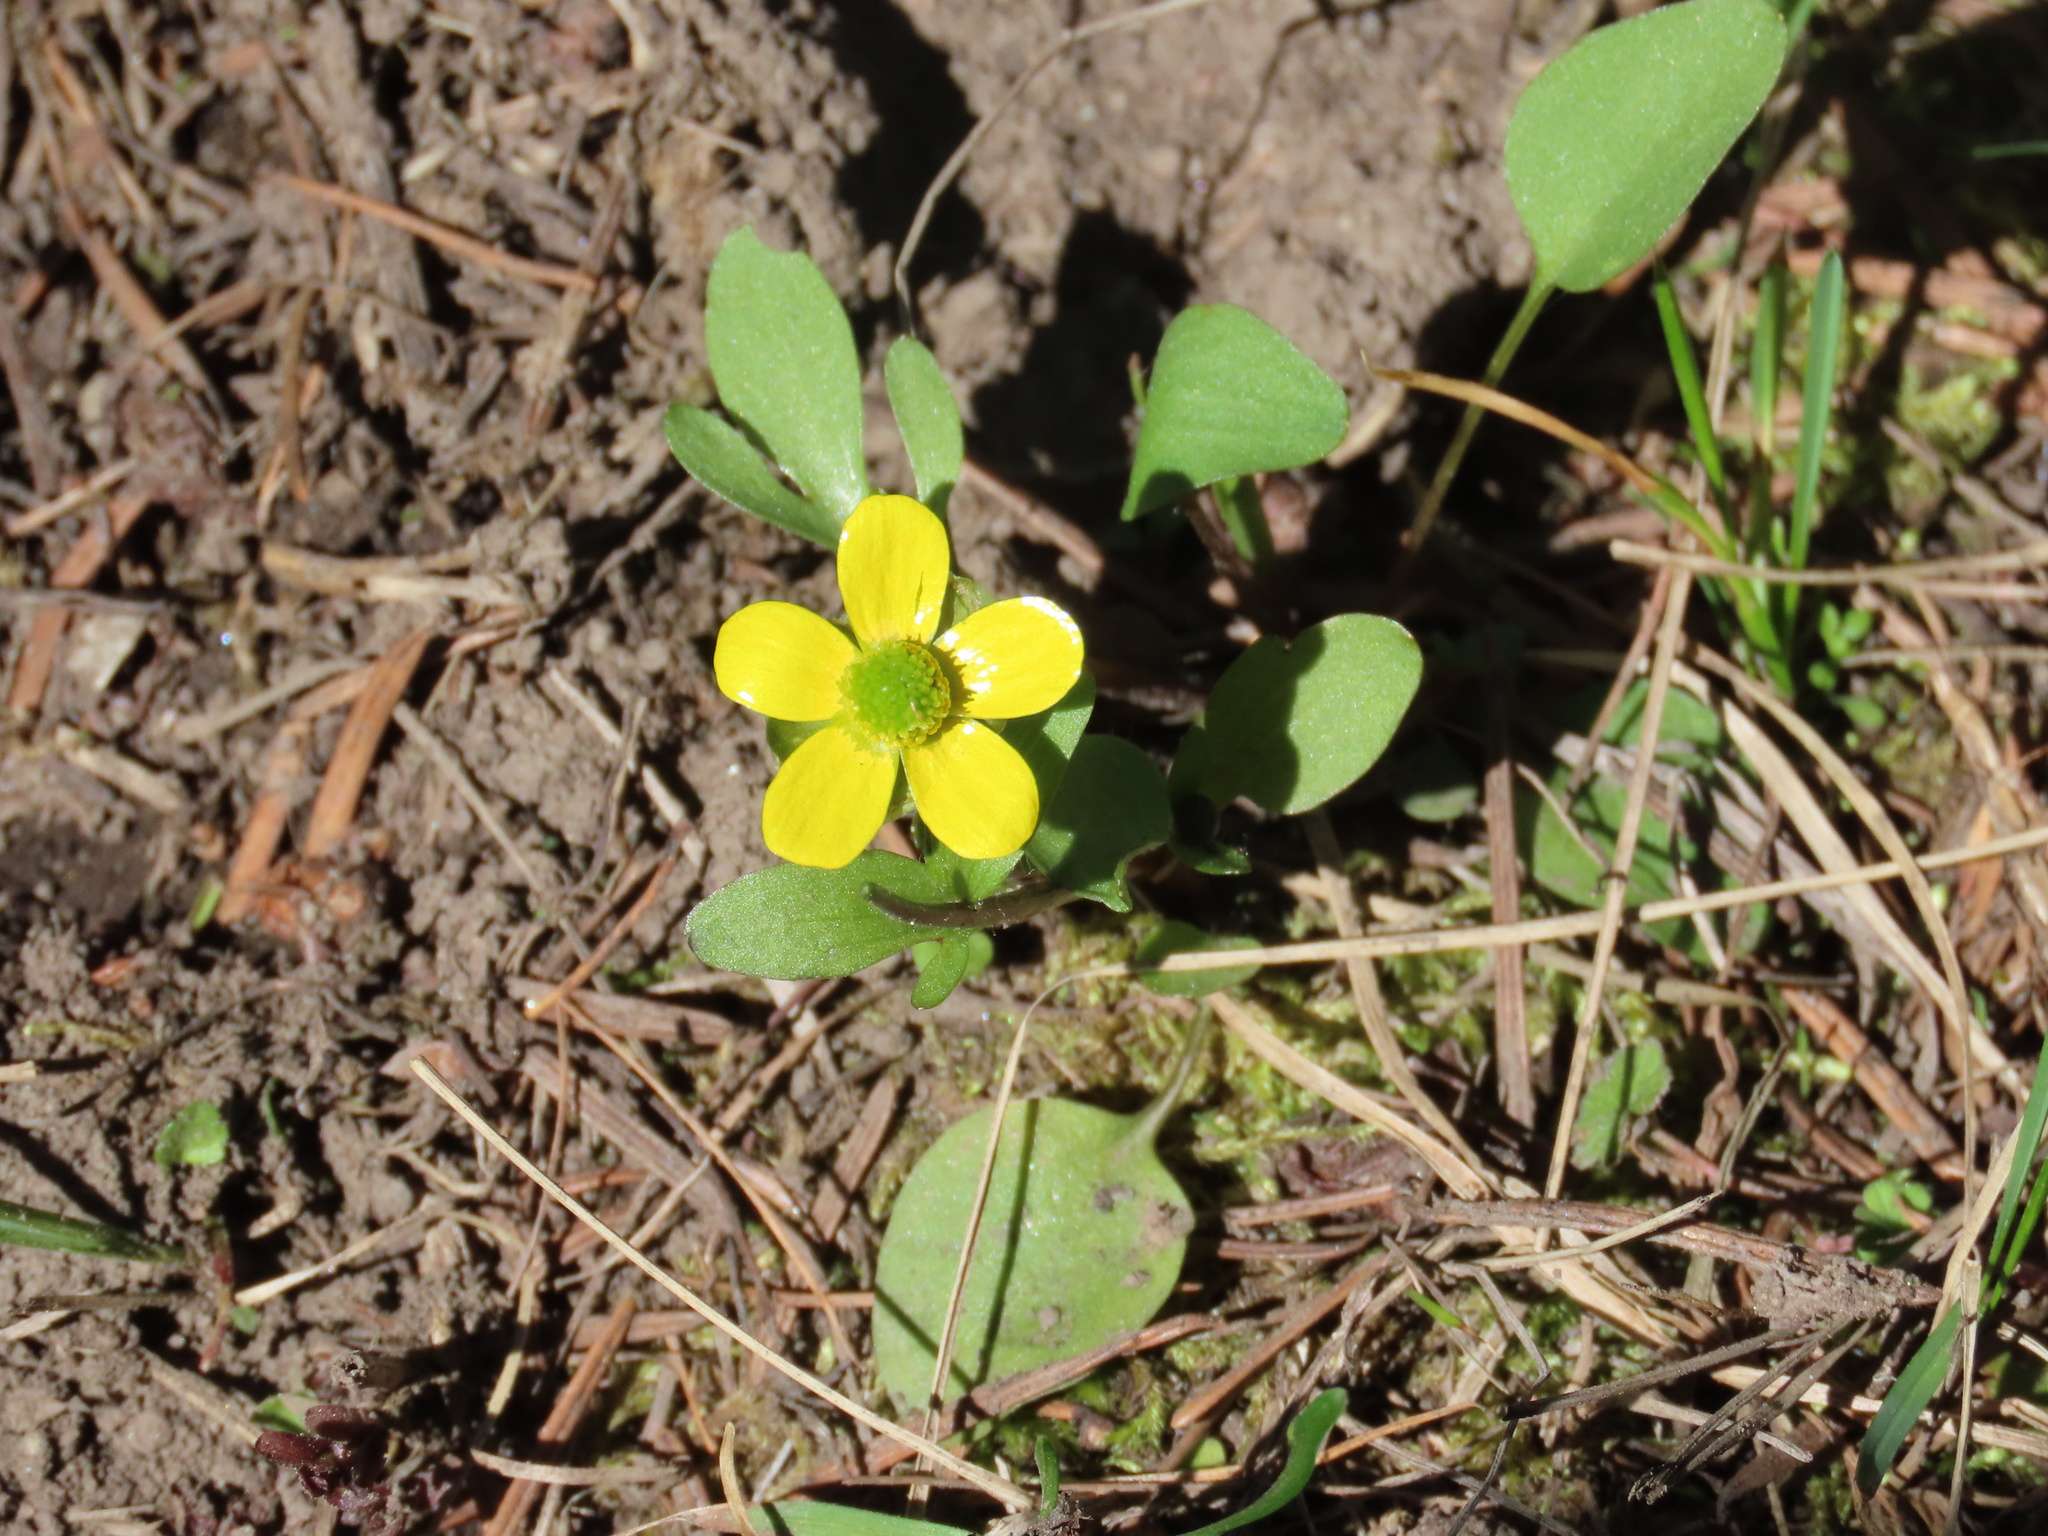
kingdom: Plantae
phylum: Tracheophyta
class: Magnoliopsida
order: Ranunculales
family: Ranunculaceae
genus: Ranunculus
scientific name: Ranunculus glaberrimus
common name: Sagebrush buttercup
